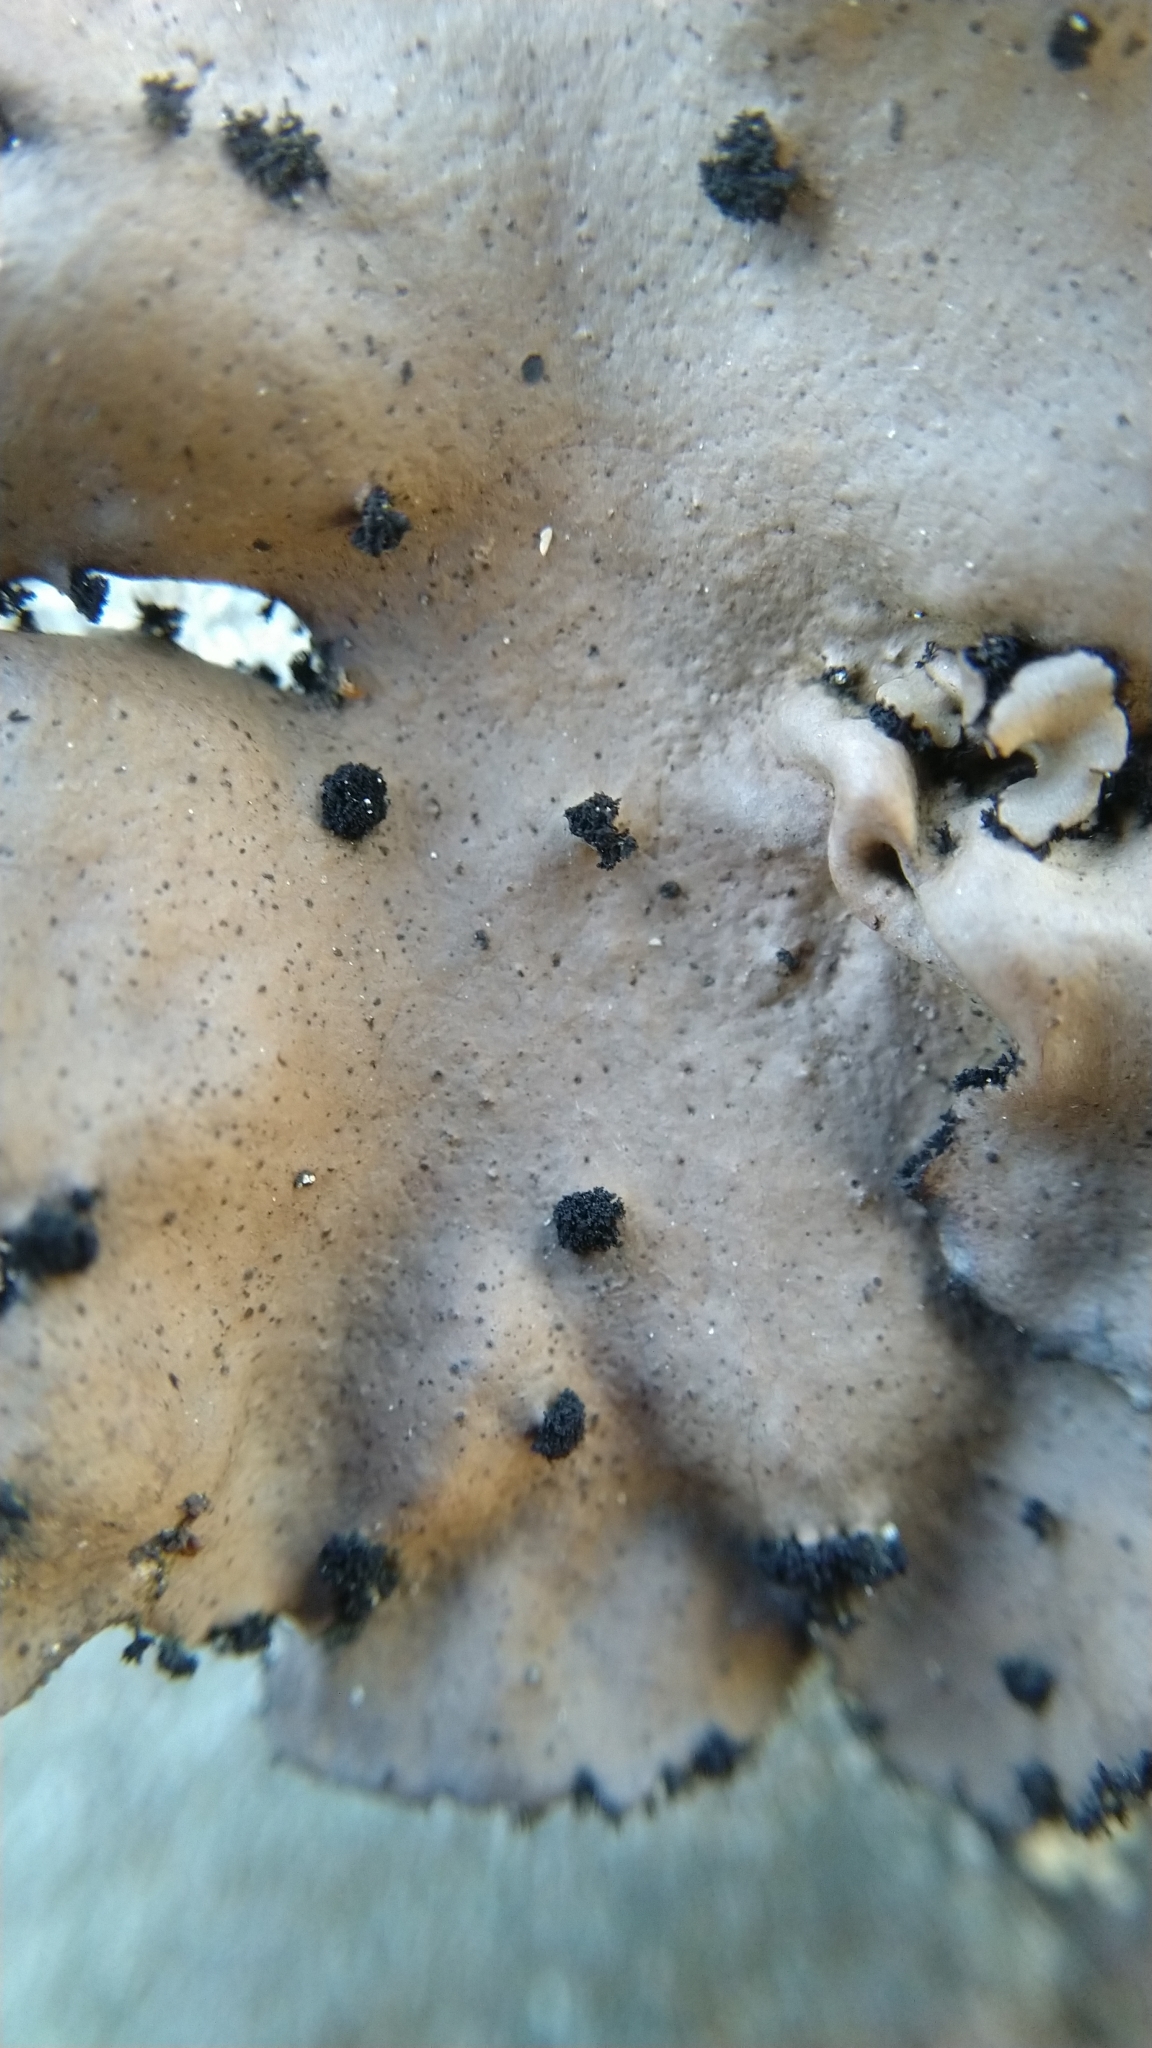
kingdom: Fungi
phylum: Ascomycota
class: Lecanoromycetes
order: Umbilicariales
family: Umbilicariaceae
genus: Umbilicaria
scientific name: Umbilicaria polyrrhiza
